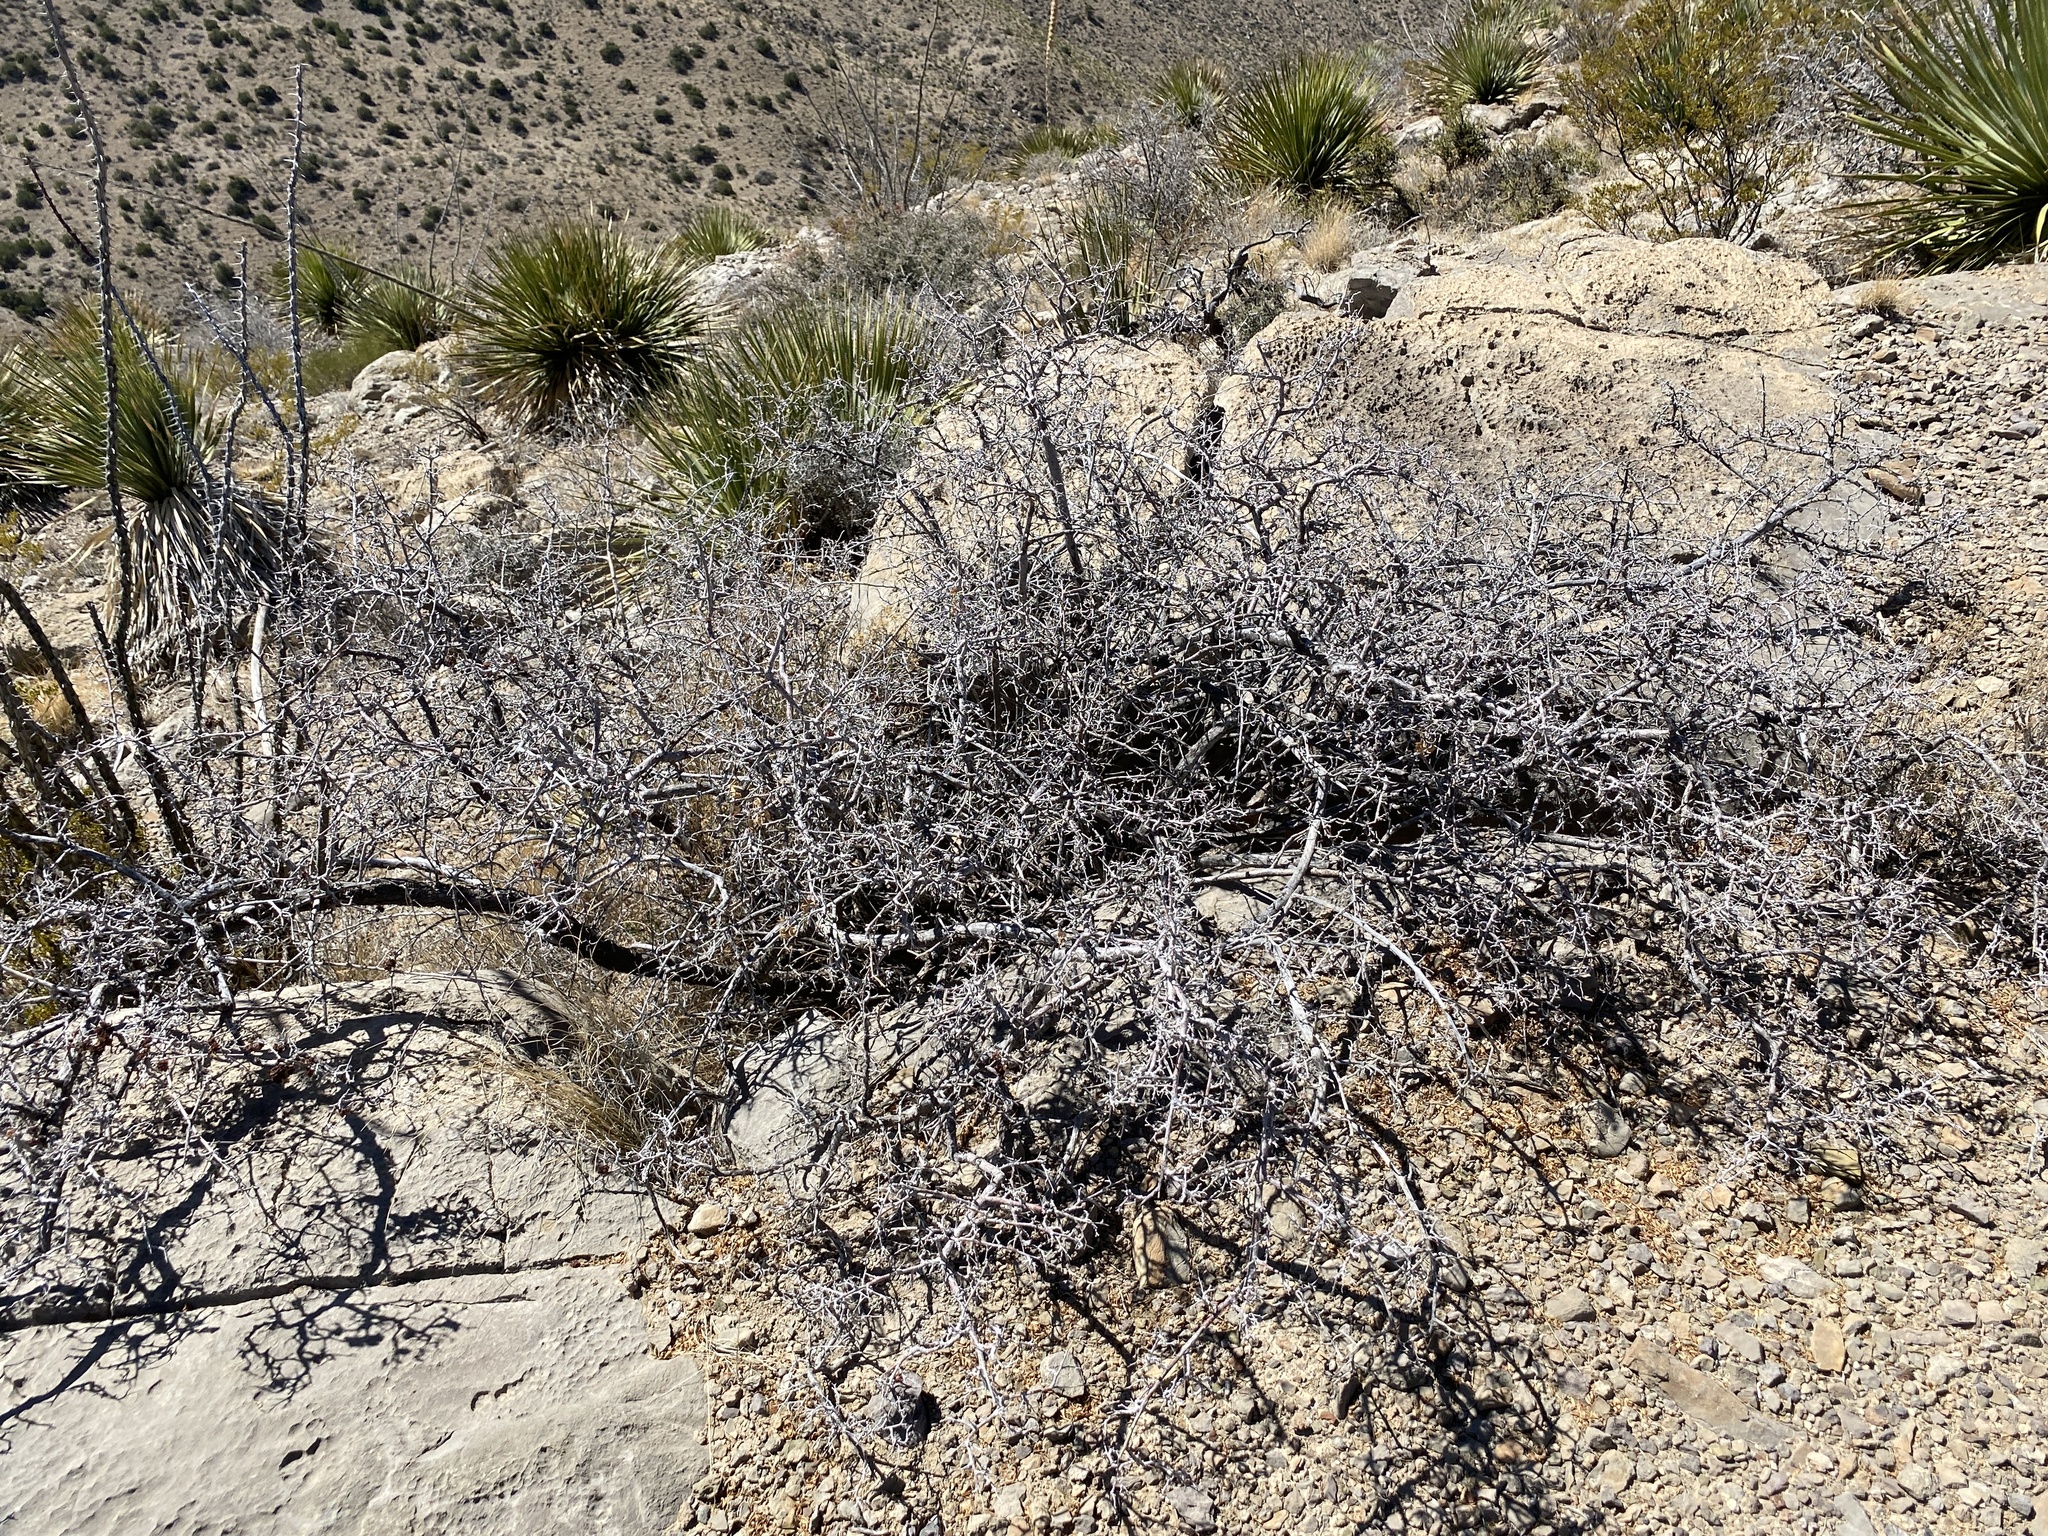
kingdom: Plantae
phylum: Tracheophyta
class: Magnoliopsida
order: Sapindales
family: Anacardiaceae
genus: Rhus
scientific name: Rhus microphylla
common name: Desert sumac
